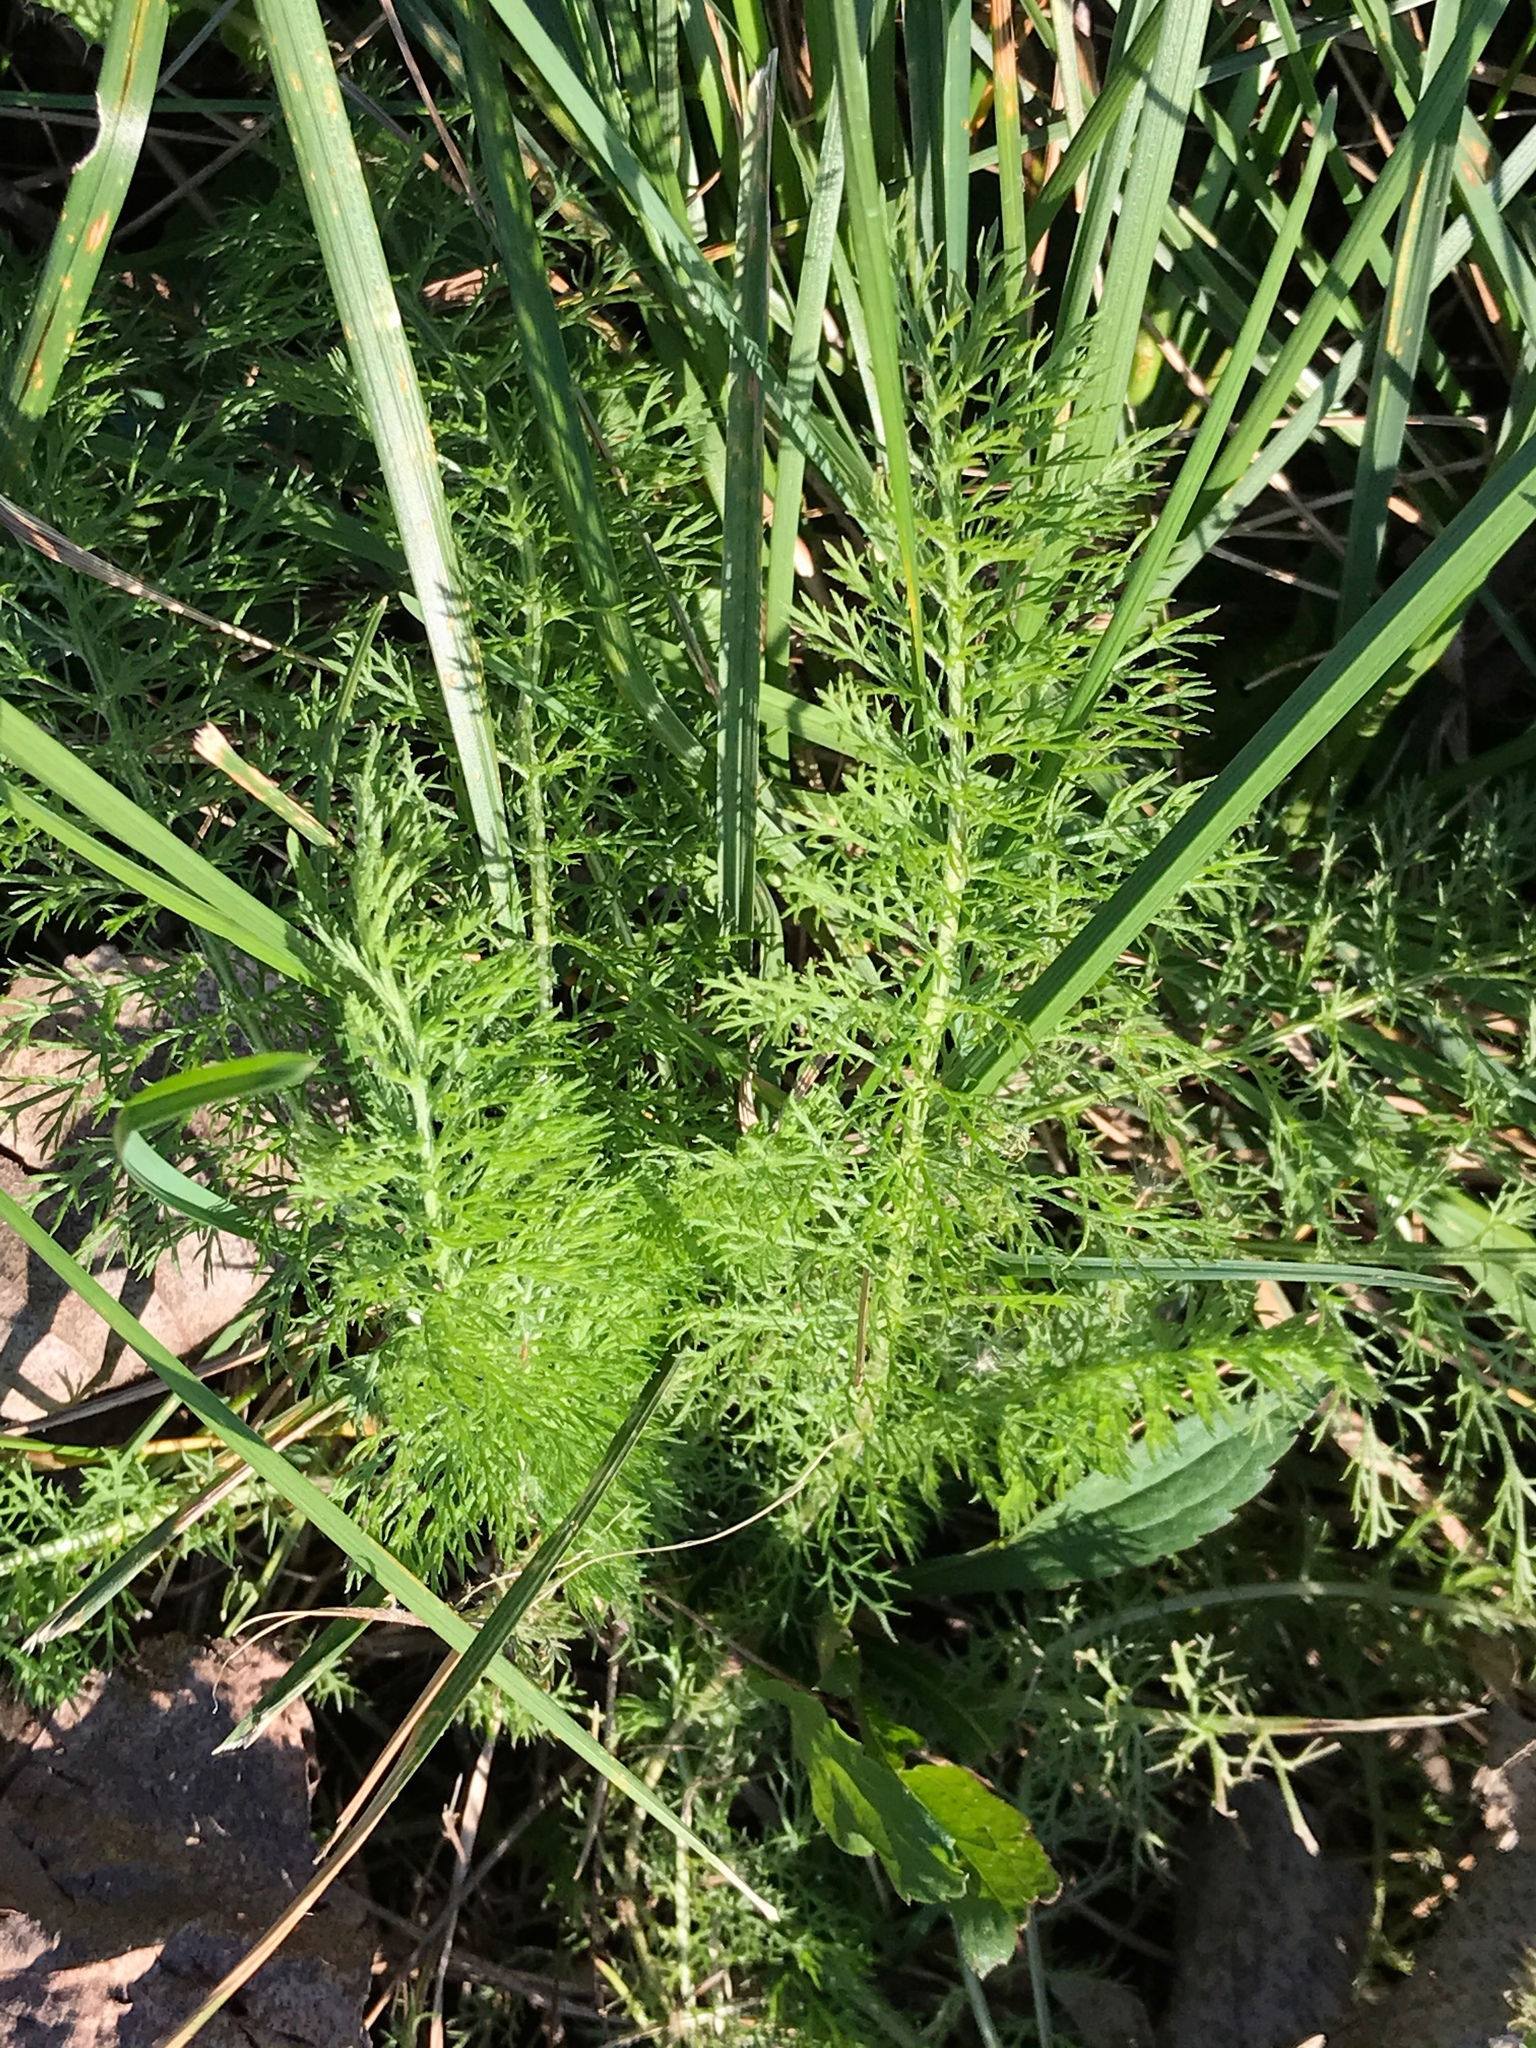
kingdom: Plantae
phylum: Tracheophyta
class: Magnoliopsida
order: Asterales
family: Asteraceae
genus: Achillea
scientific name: Achillea millefolium
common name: Yarrow
